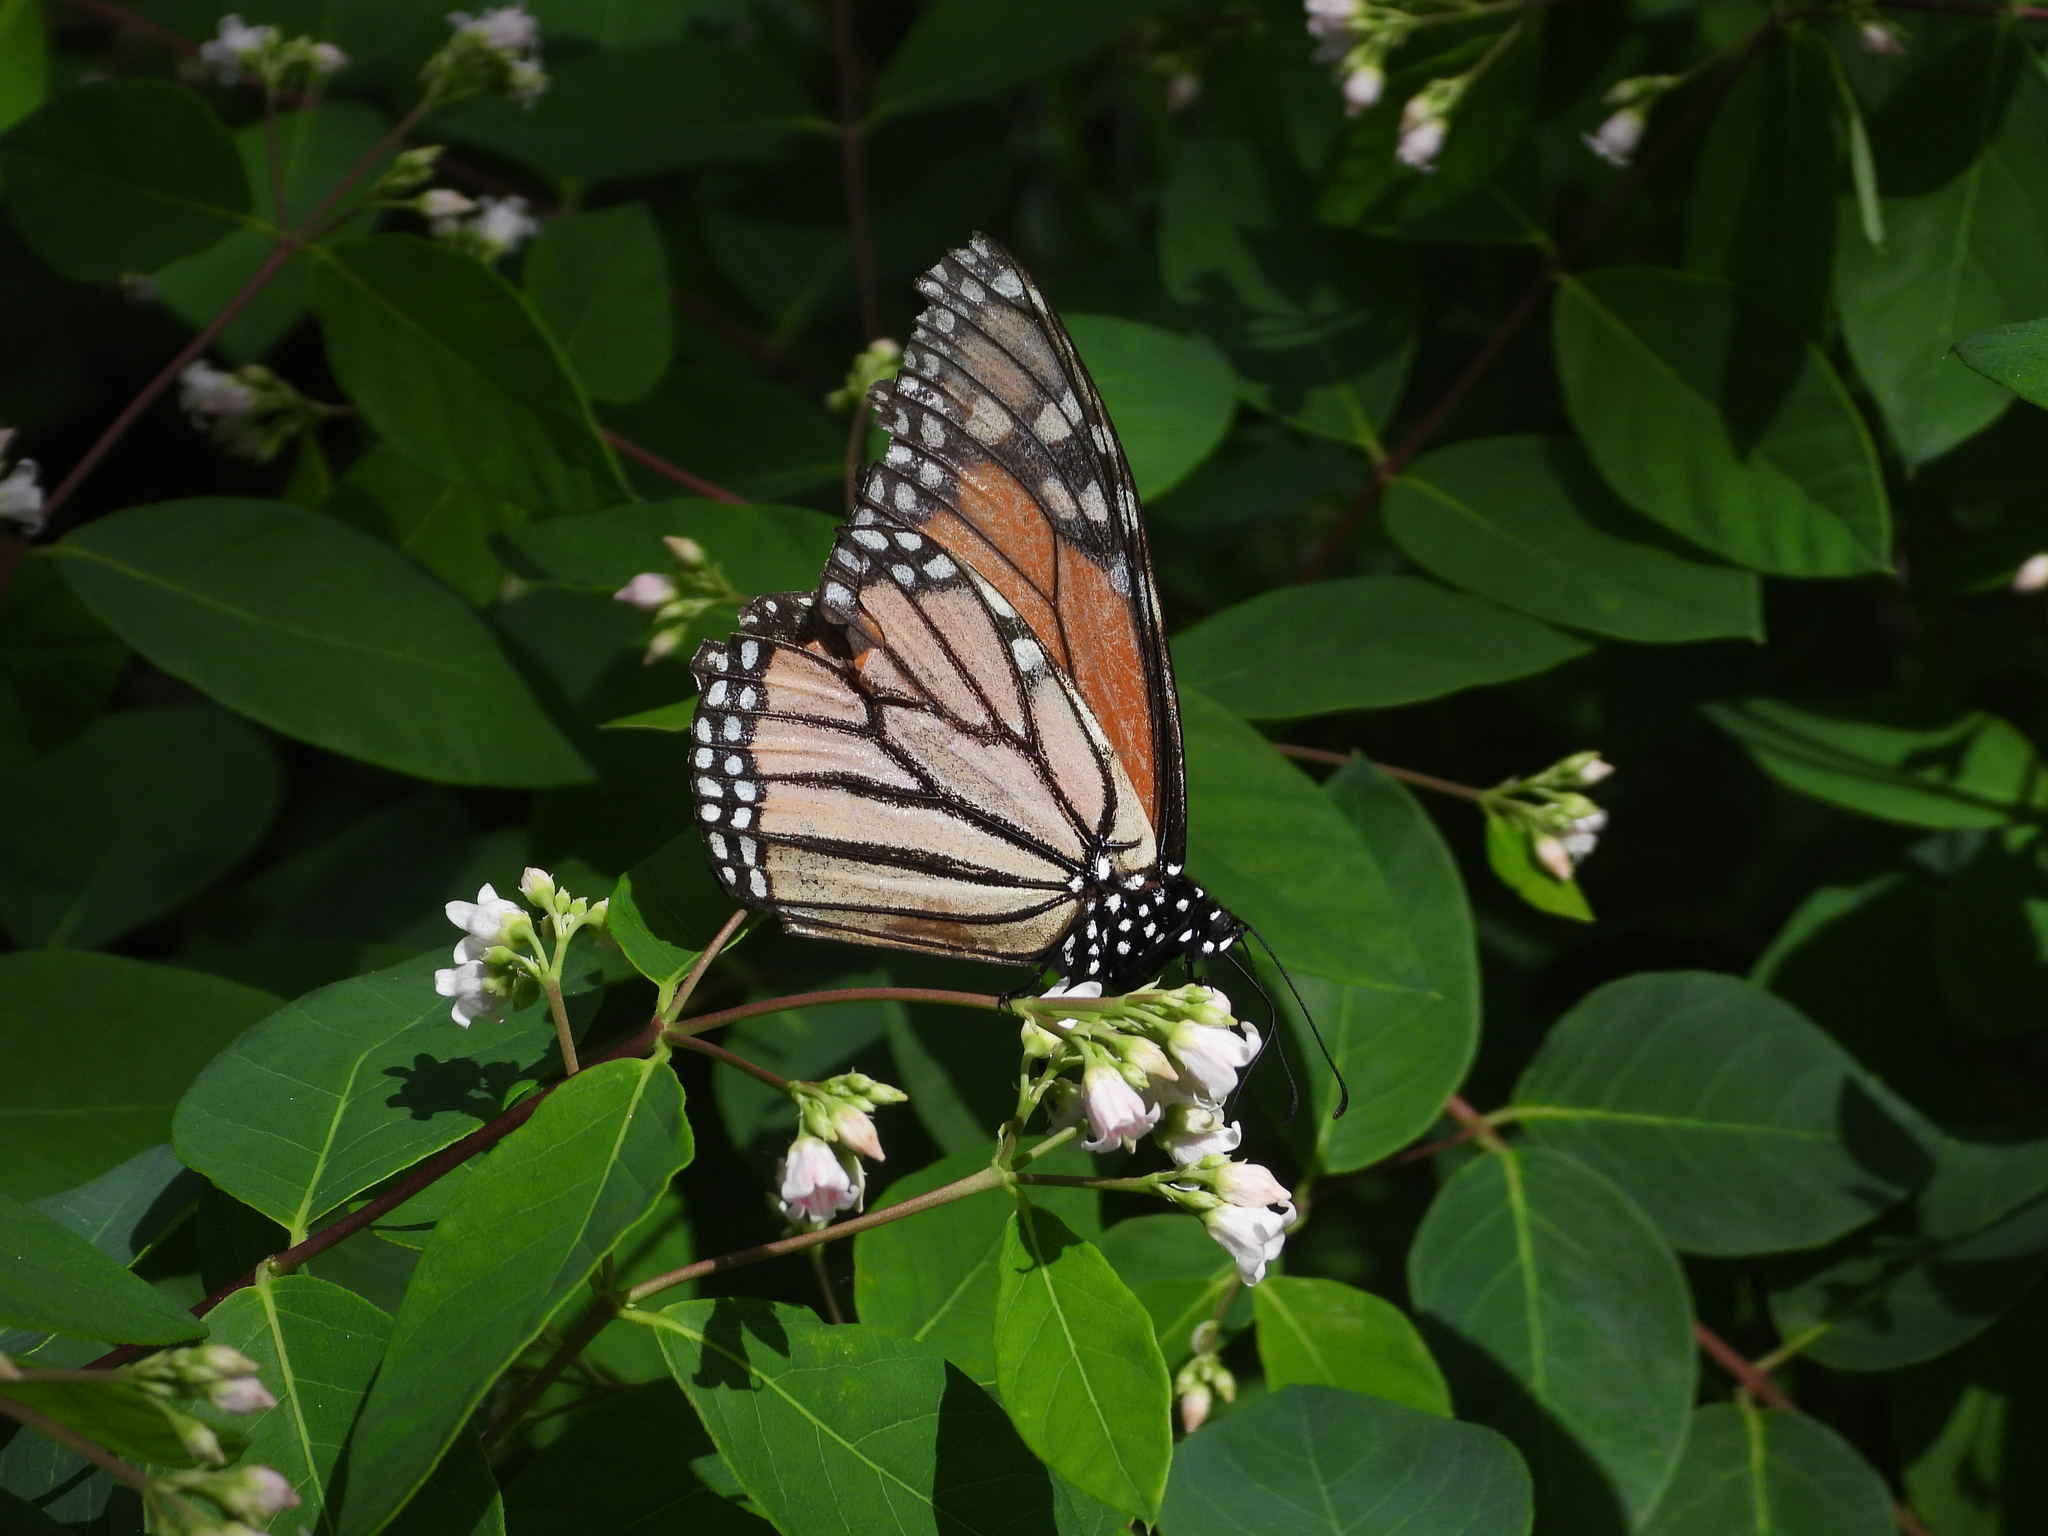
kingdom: Animalia
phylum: Arthropoda
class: Insecta
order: Lepidoptera
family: Nymphalidae
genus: Danaus
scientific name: Danaus plexippus
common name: Monarch
